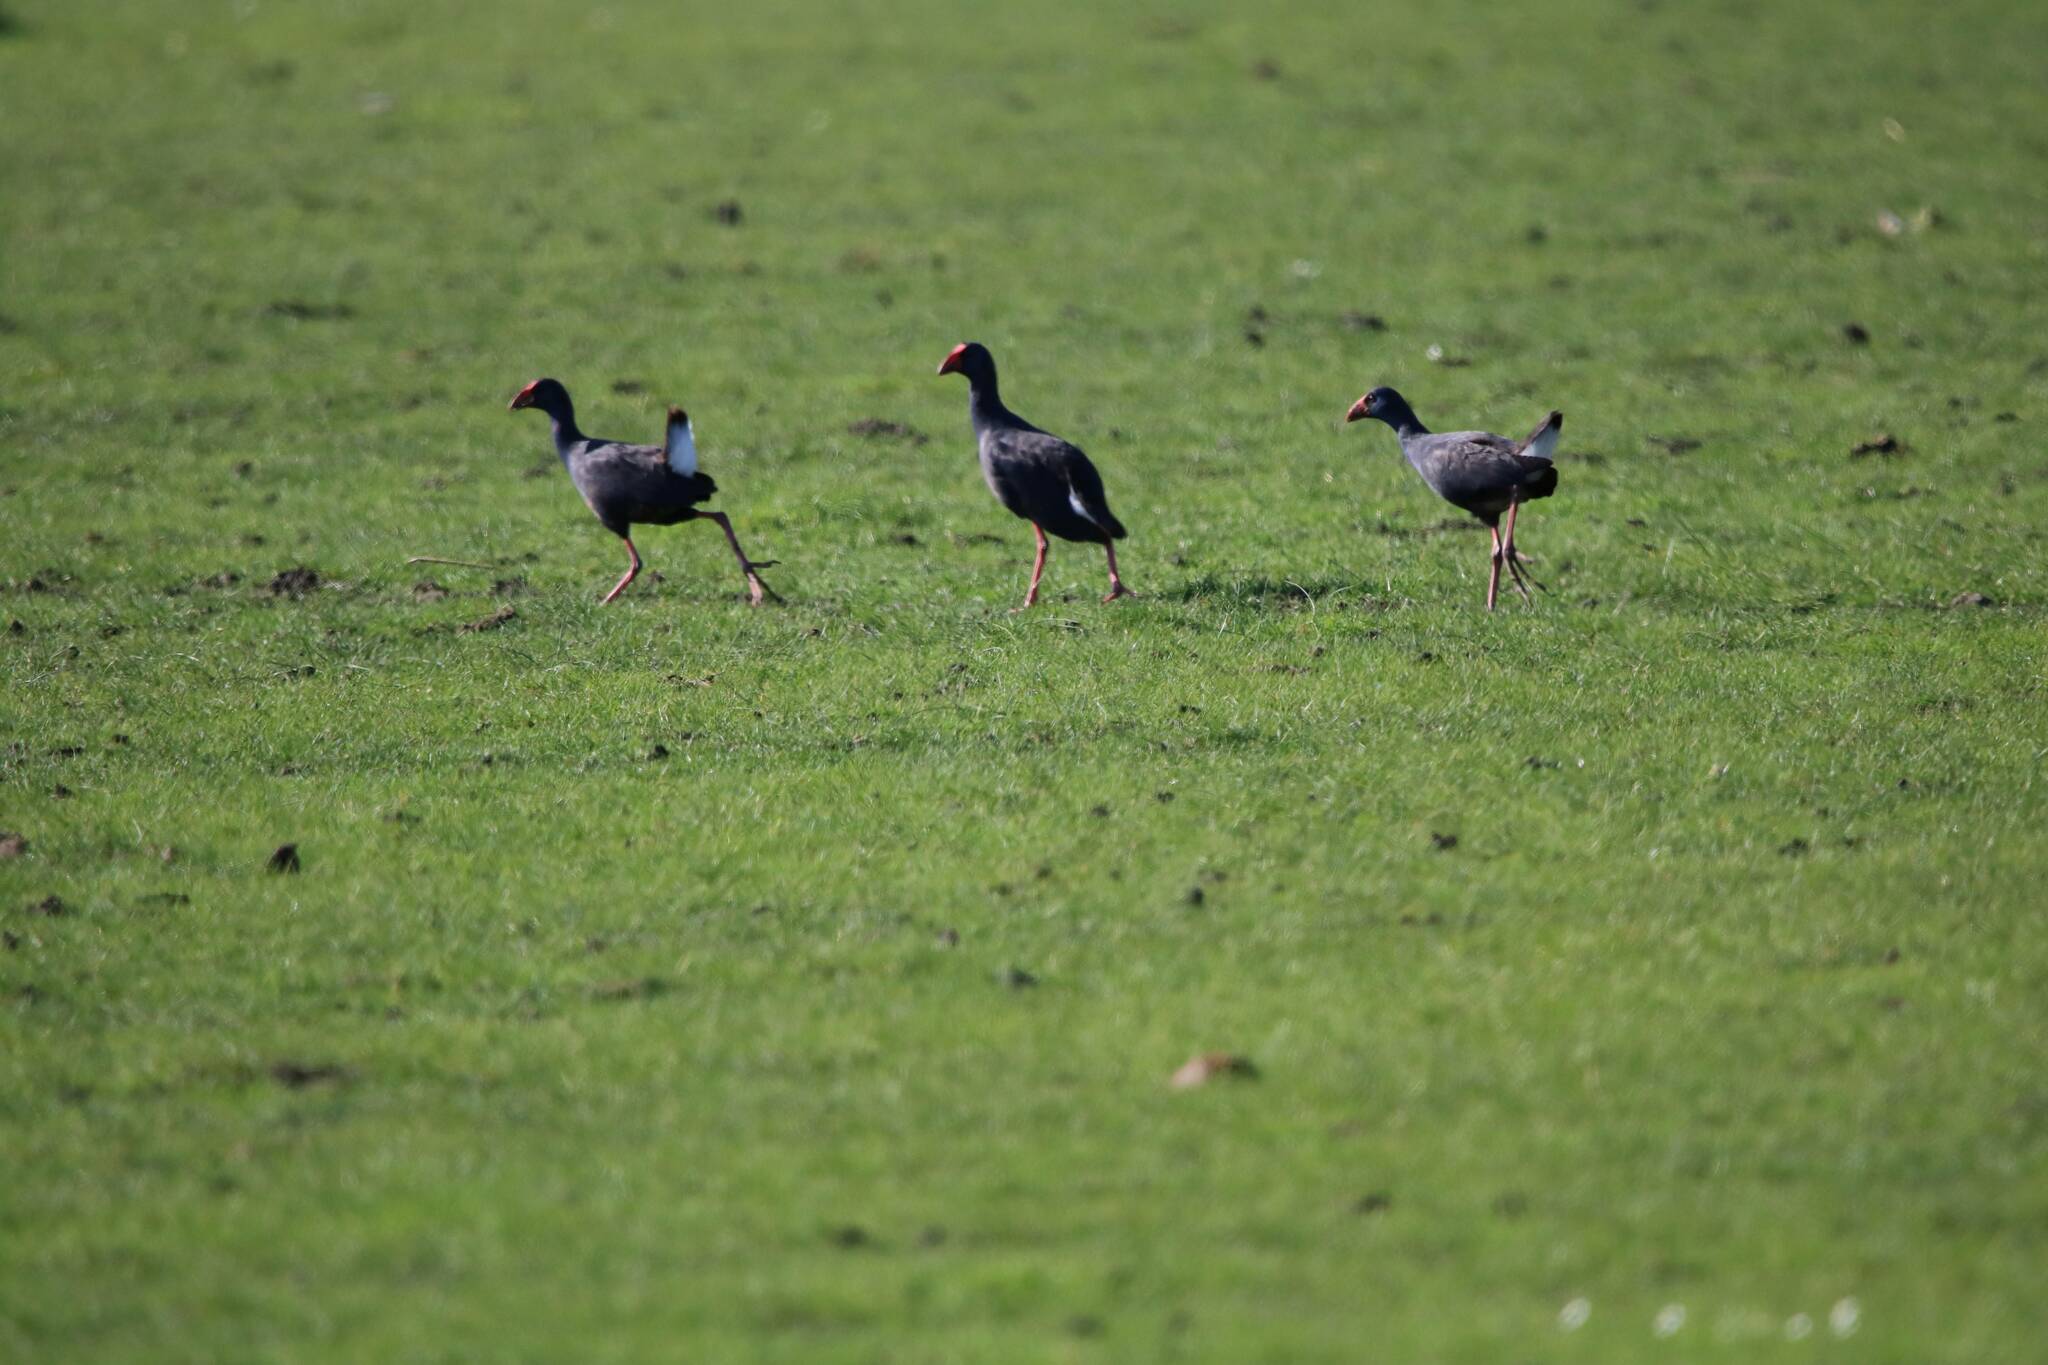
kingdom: Animalia
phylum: Chordata
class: Aves
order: Gruiformes
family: Rallidae
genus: Porphyrio
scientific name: Porphyrio porphyrio
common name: Purple swamphen
